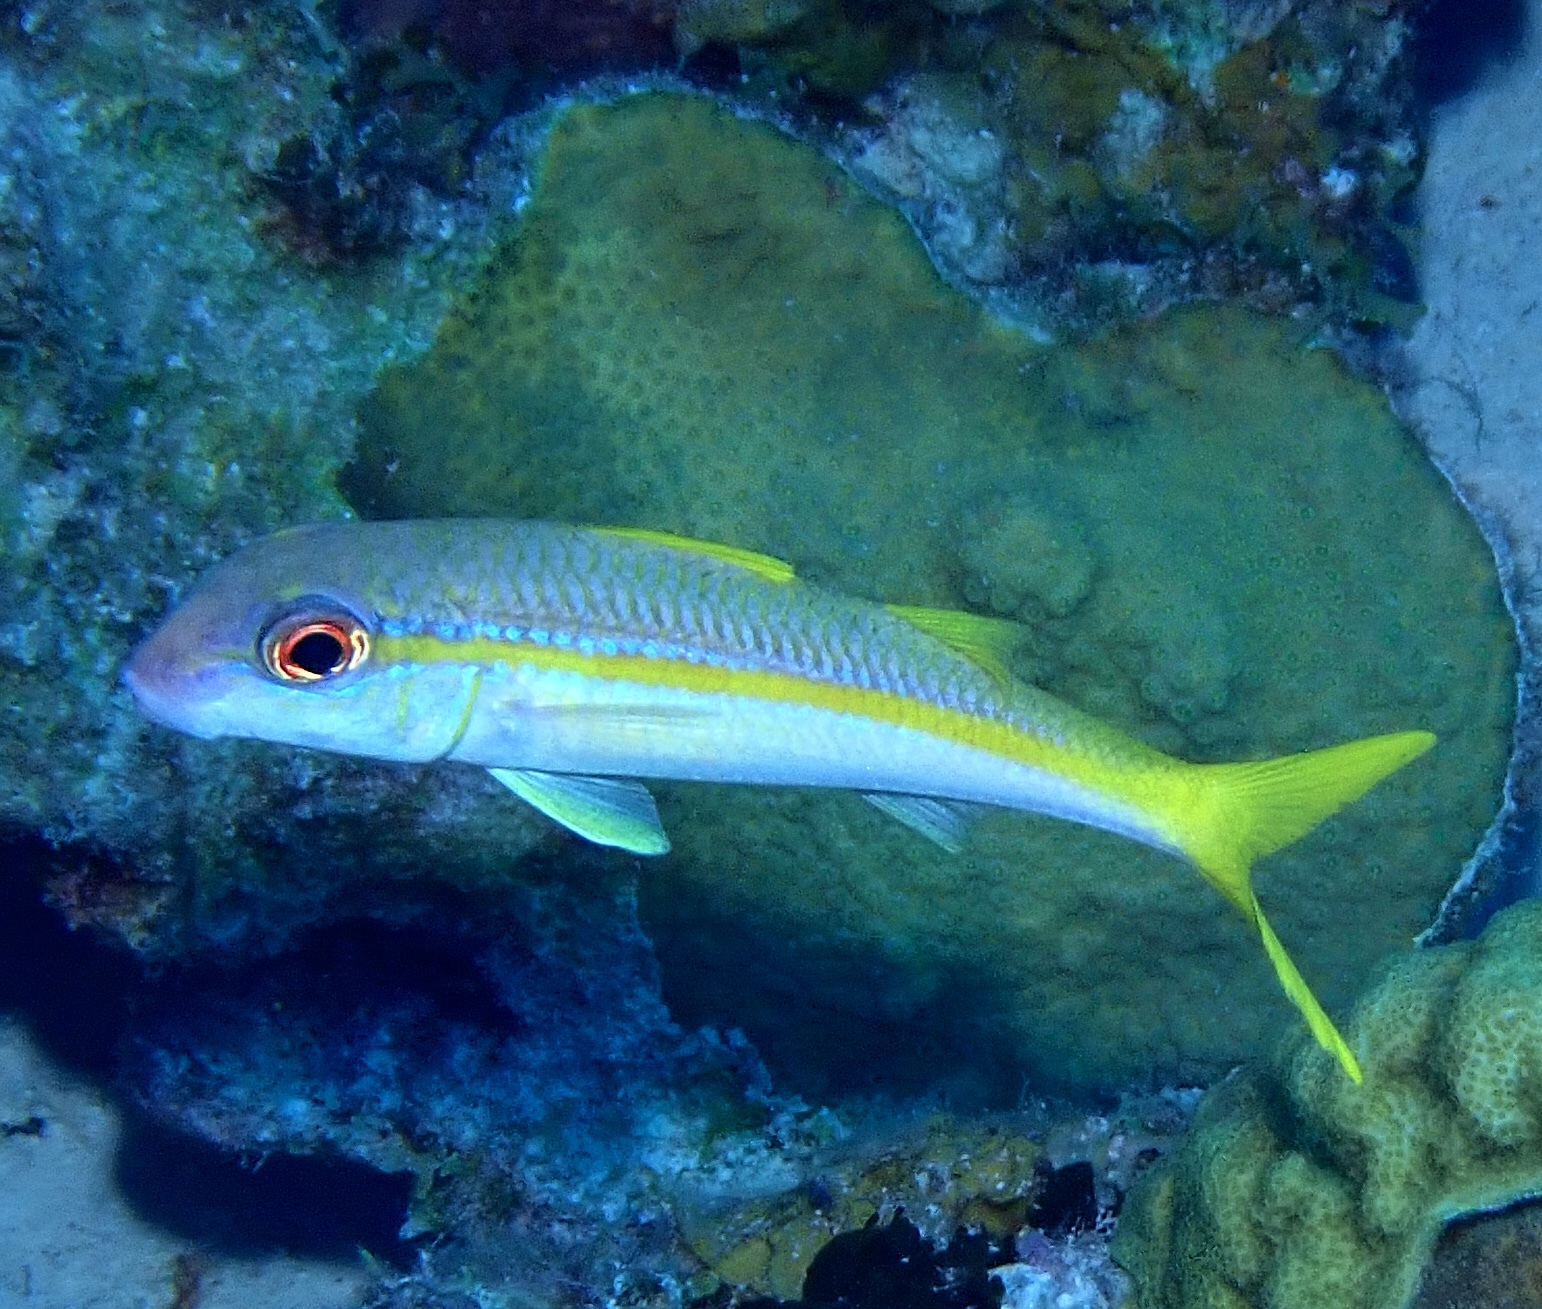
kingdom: Animalia
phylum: Chordata
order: Perciformes
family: Mullidae
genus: Mulloidichthys
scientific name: Mulloidichthys martinicus
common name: Yellow goatfish
